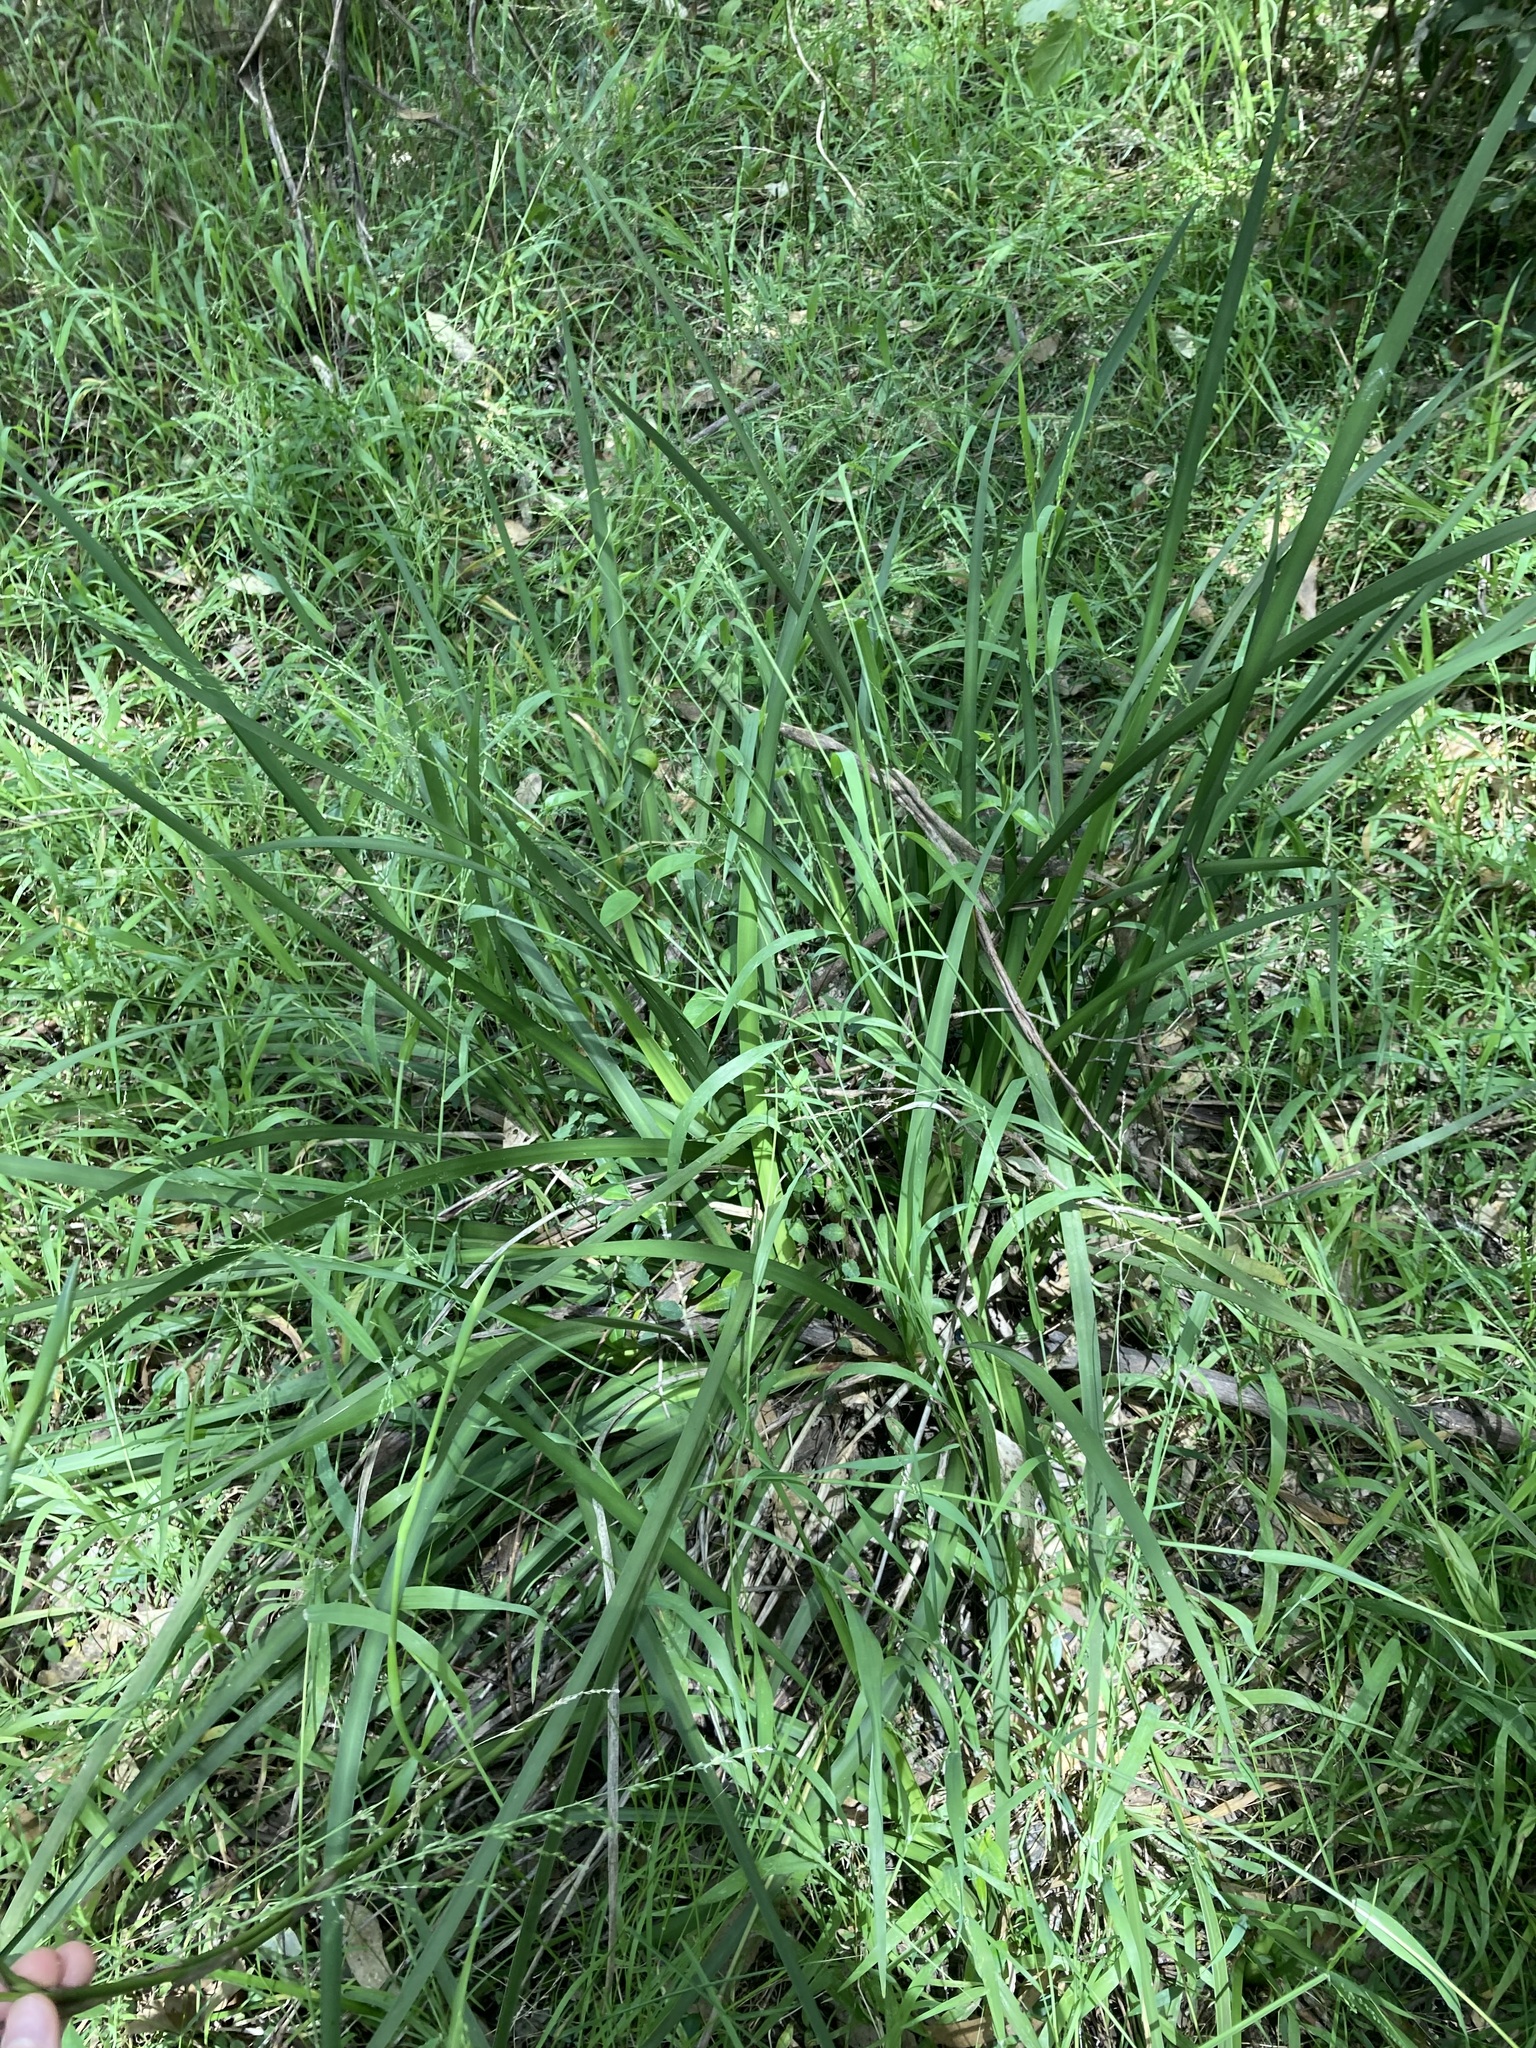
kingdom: Plantae
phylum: Tracheophyta
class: Liliopsida
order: Asparagales
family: Iridaceae
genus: Dietes
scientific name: Dietes grandiflora
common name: Wild iris
